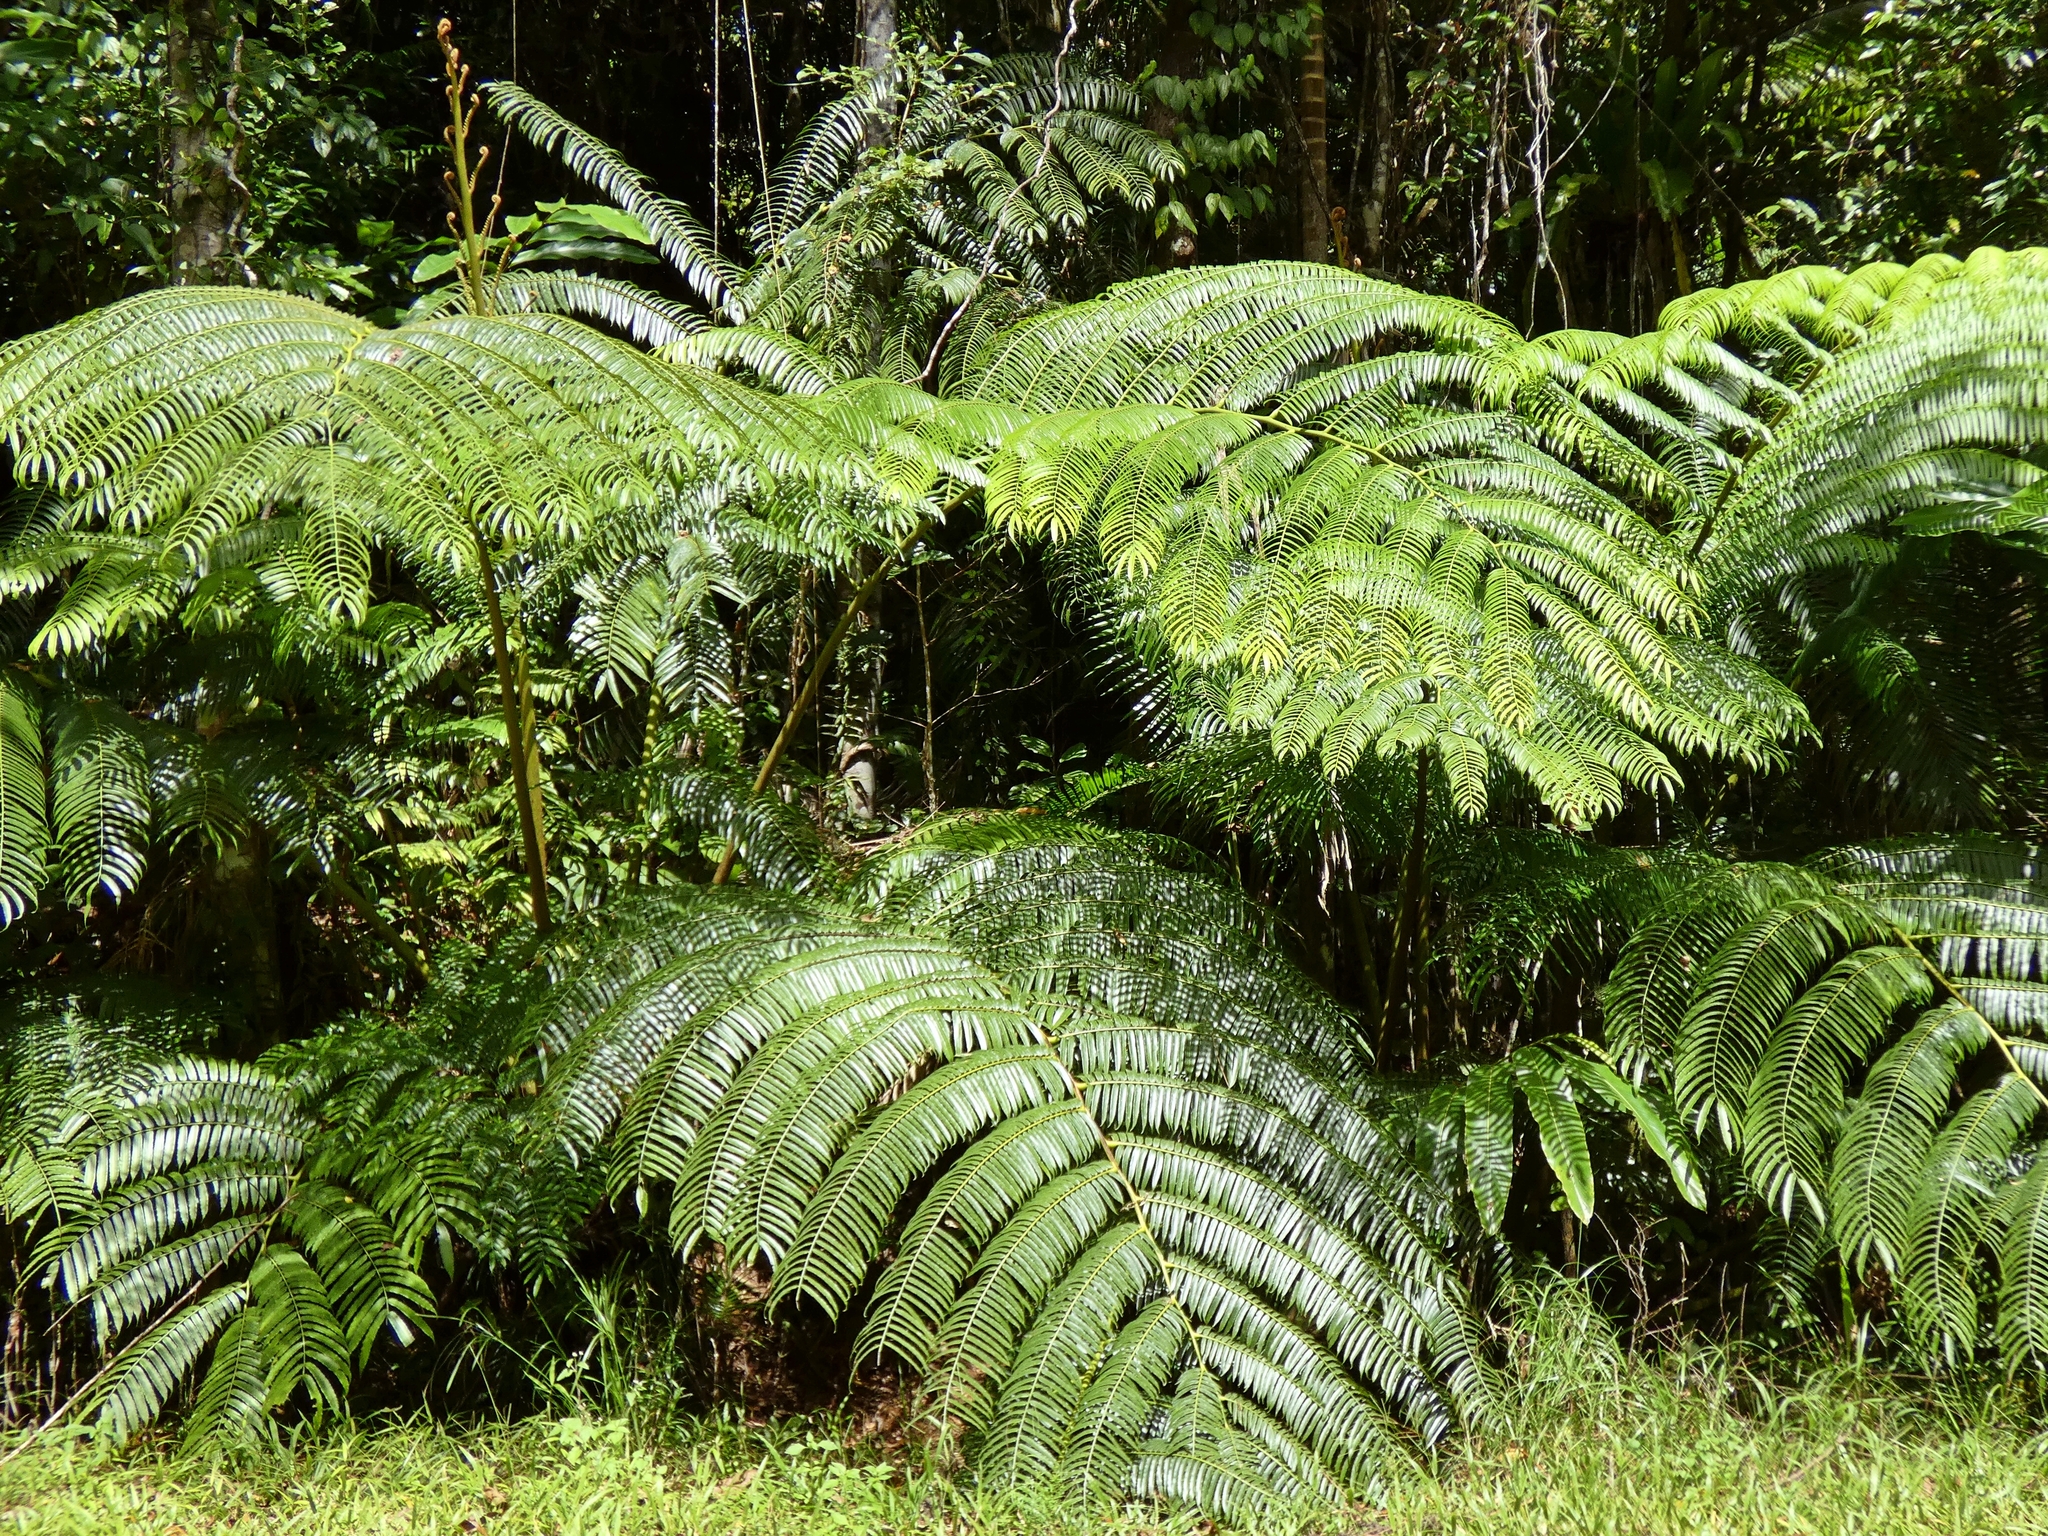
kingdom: Plantae
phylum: Tracheophyta
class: Polypodiopsida
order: Cyatheales
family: Cyatheaceae
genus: Gymnosphaera
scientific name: Gymnosphaera rebeccae
